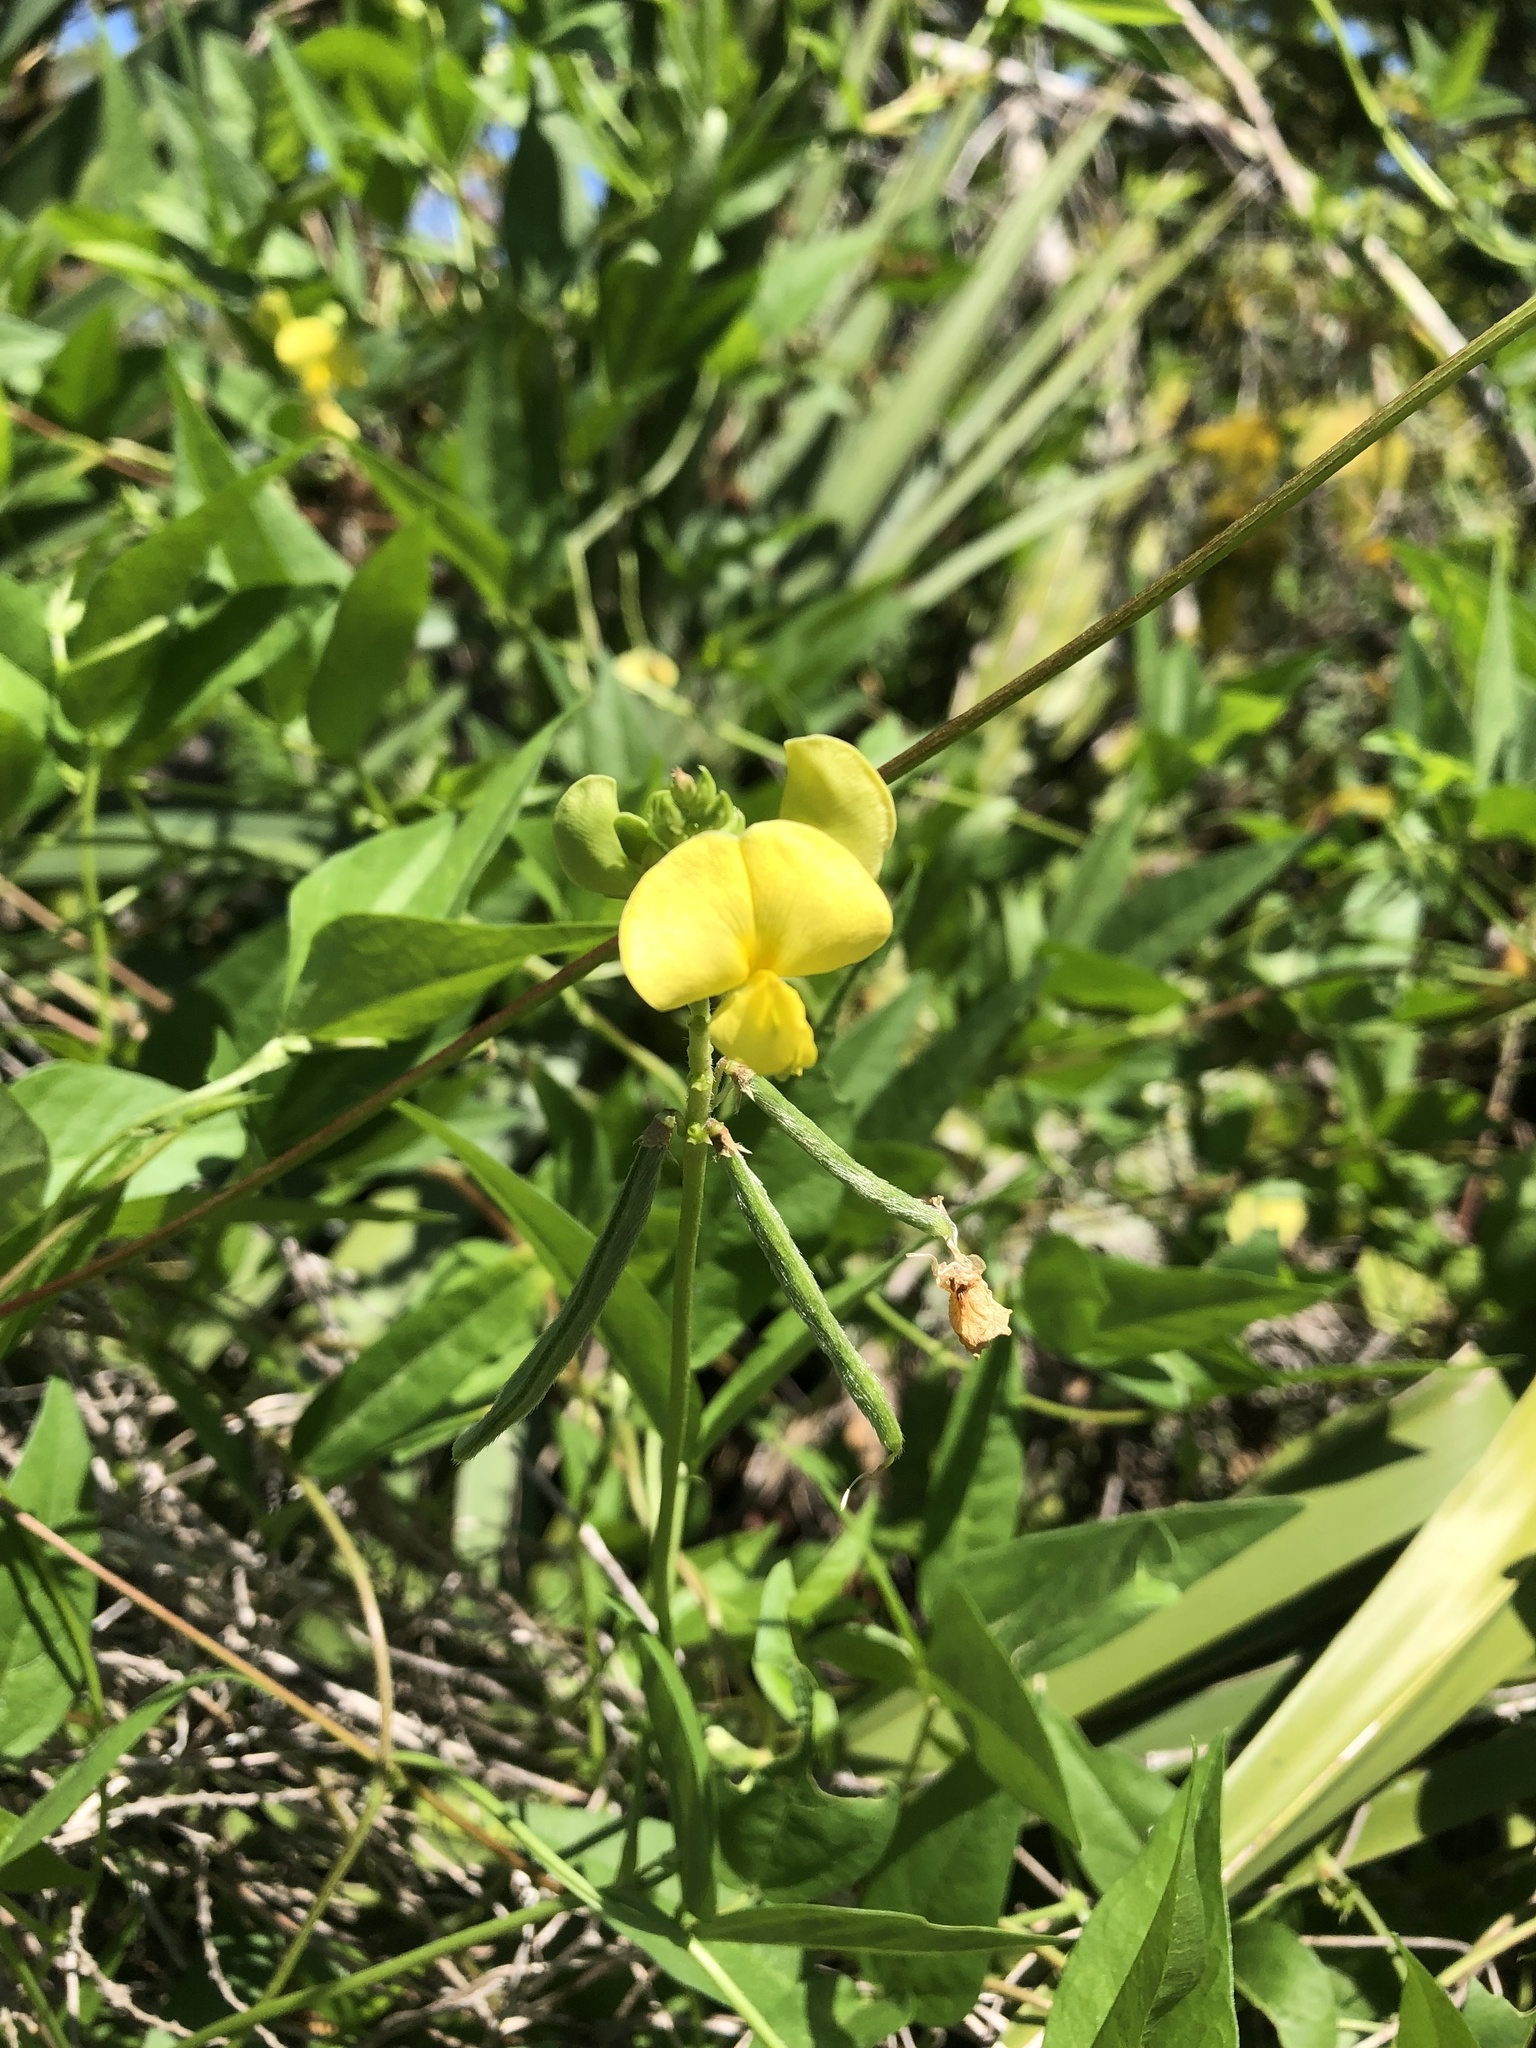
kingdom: Plantae
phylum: Tracheophyta
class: Magnoliopsida
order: Fabales
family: Fabaceae
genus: Vigna
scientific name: Vigna luteola
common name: Hairypod cowpea
